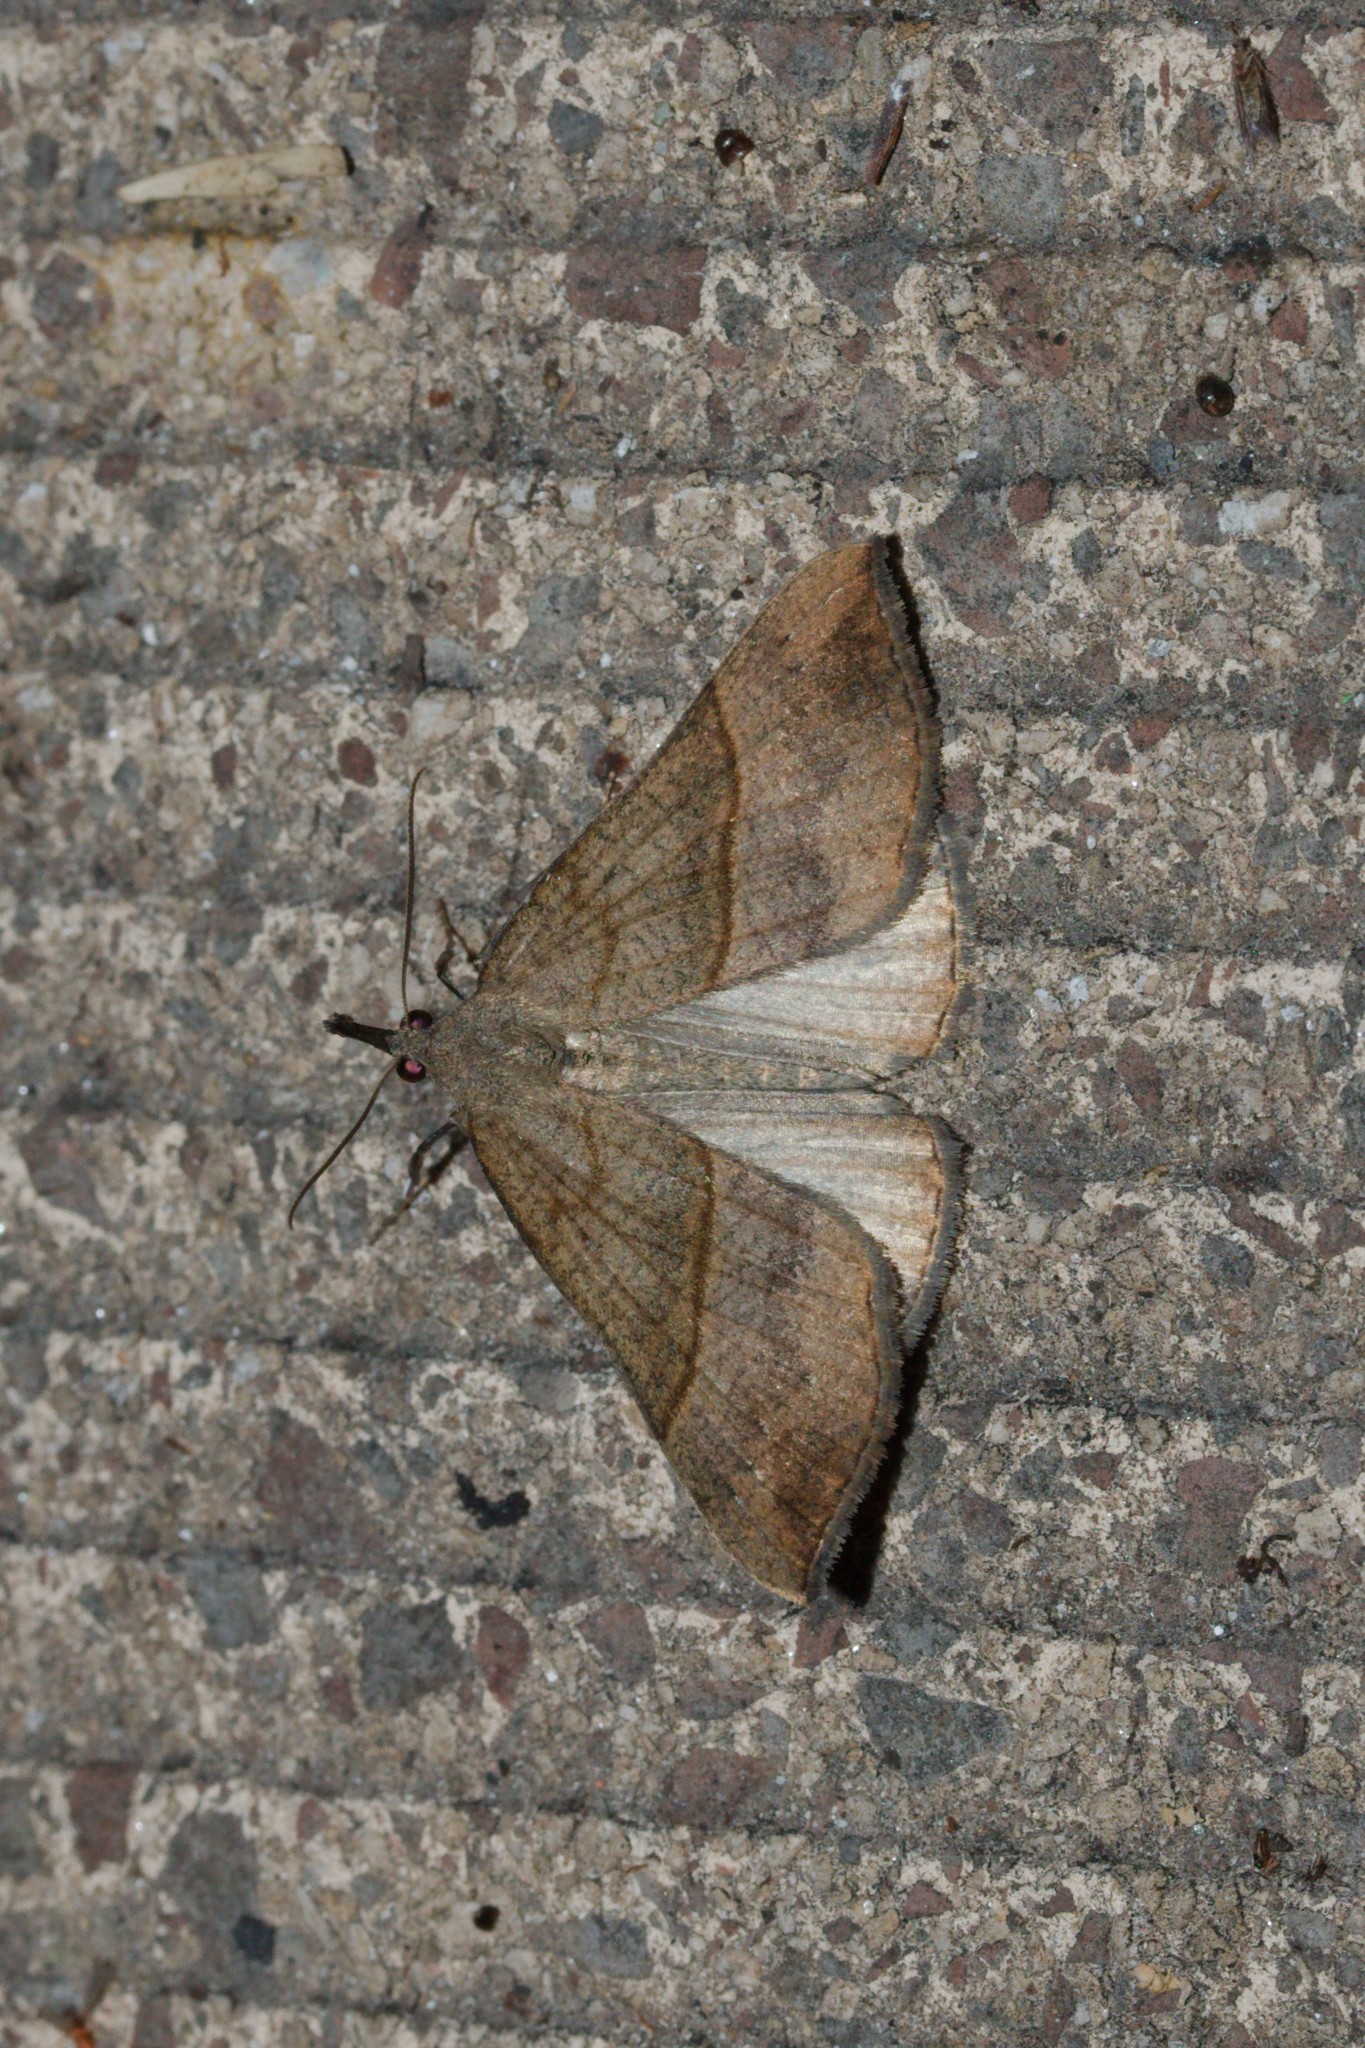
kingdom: Animalia
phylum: Arthropoda
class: Insecta
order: Lepidoptera
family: Erebidae
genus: Hypena
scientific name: Hypena proboscidalis
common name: Snout
